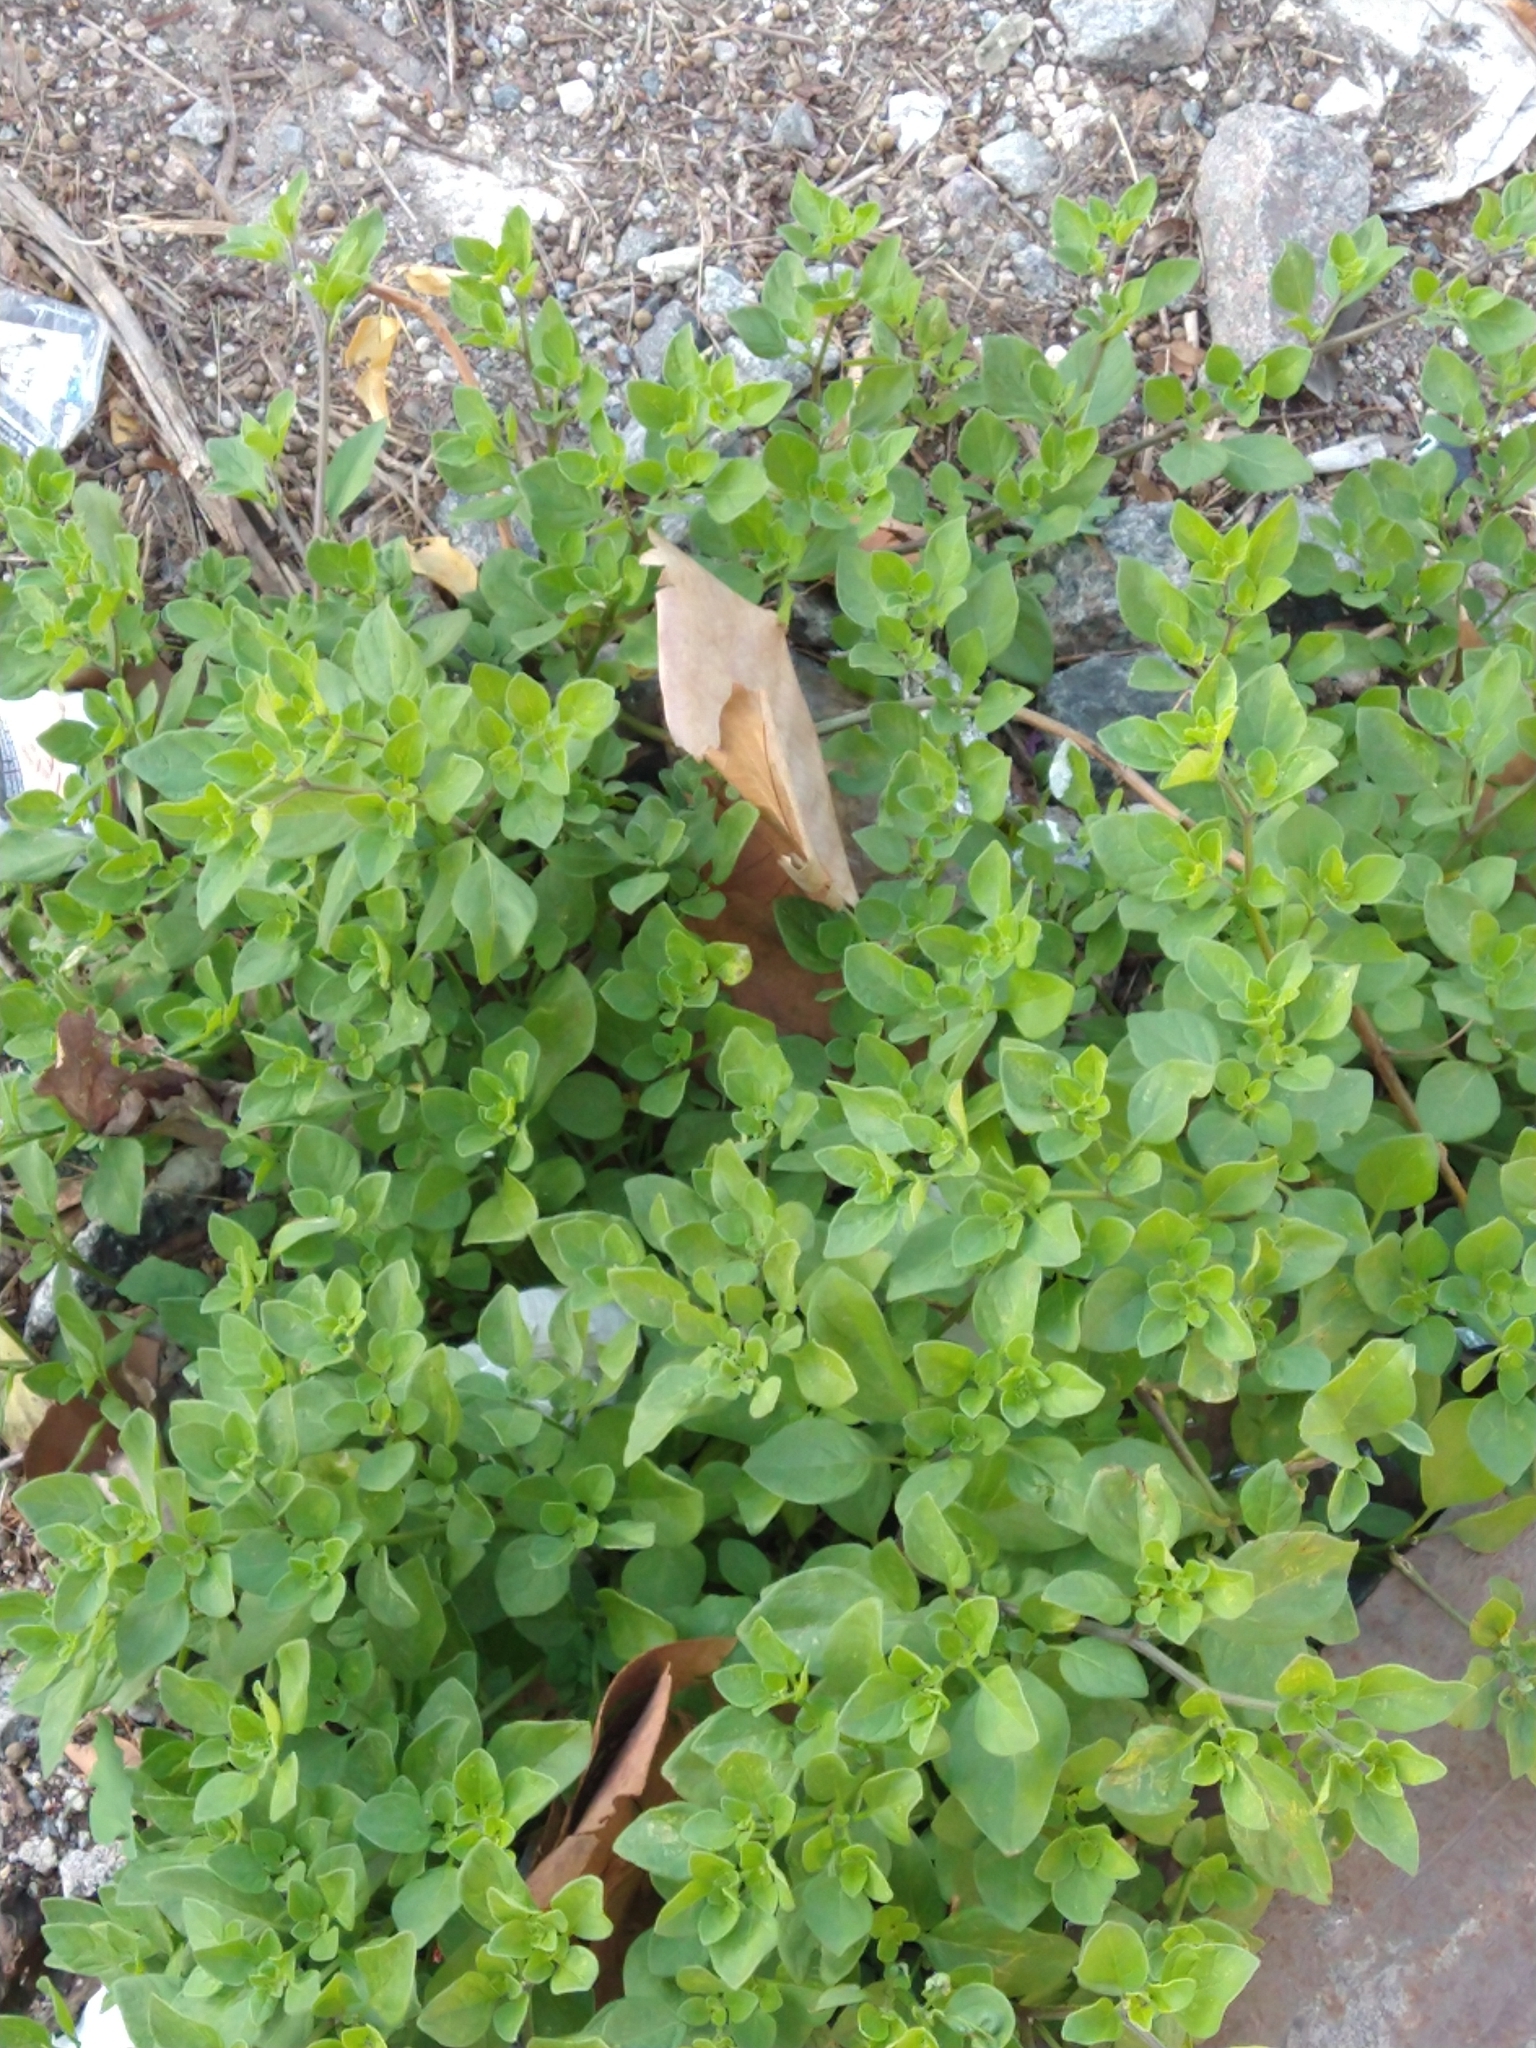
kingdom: Plantae
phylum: Tracheophyta
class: Magnoliopsida
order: Solanales
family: Solanaceae
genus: Salpichroa
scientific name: Salpichroa origanifolia
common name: Lily-of-the-valley-vine
